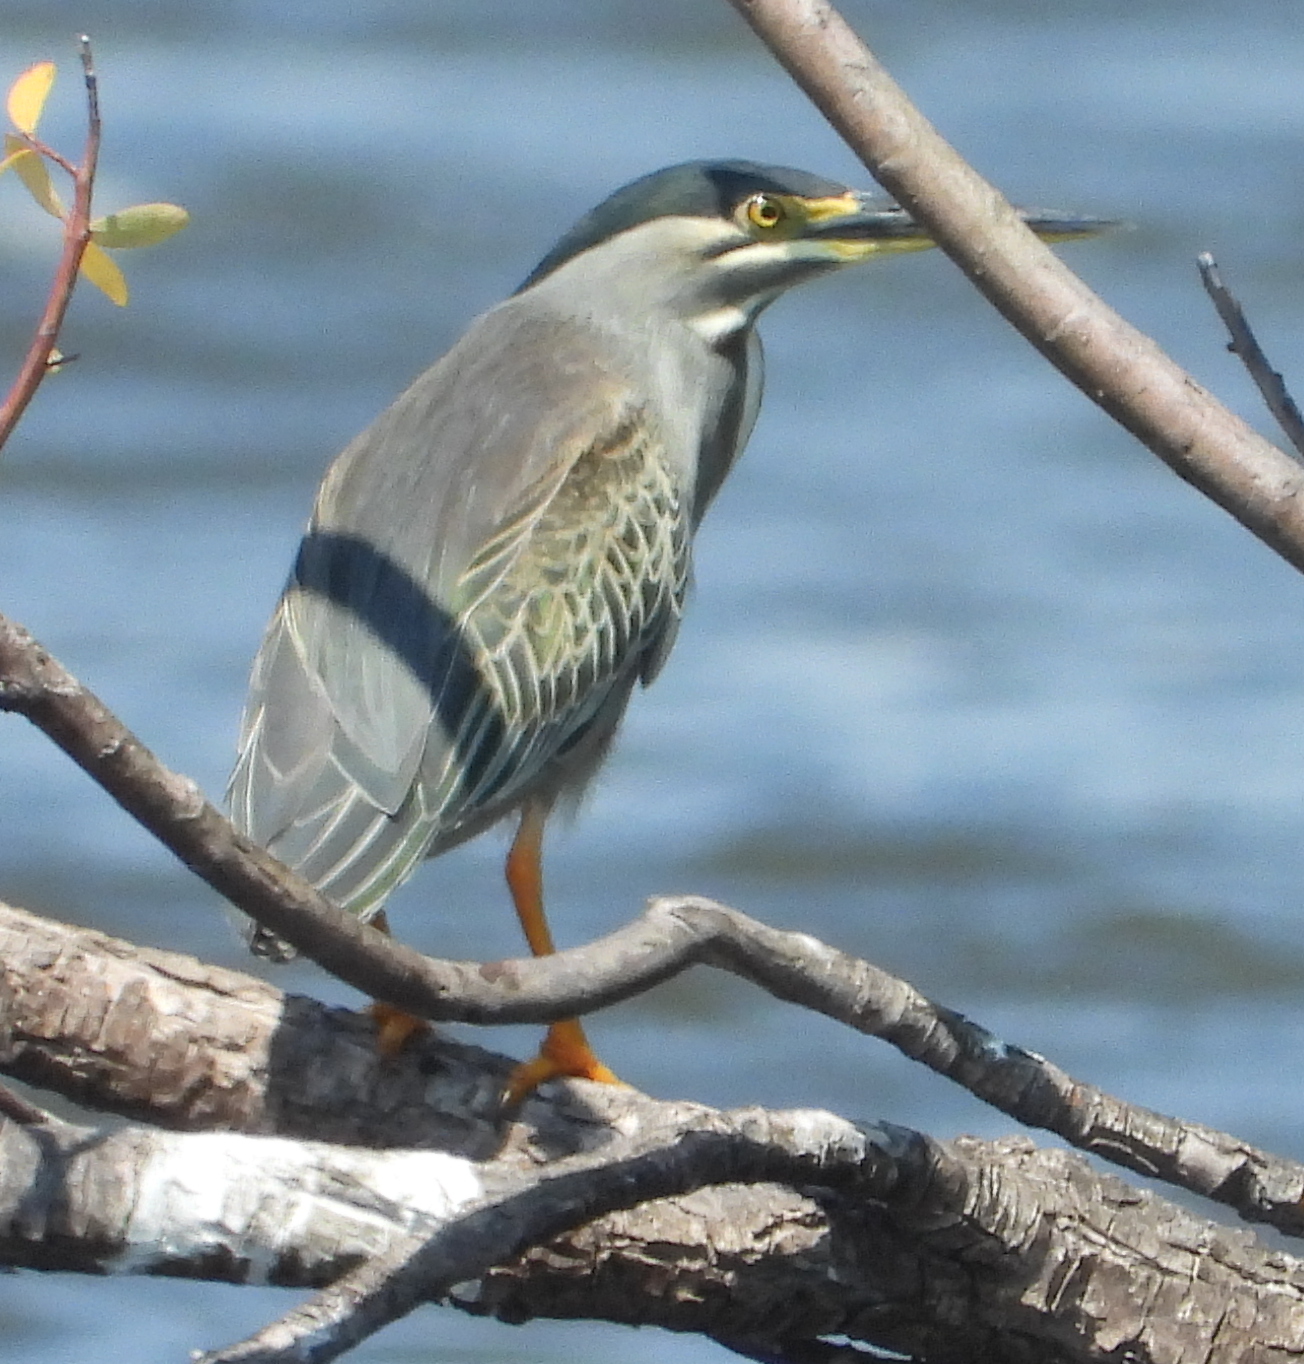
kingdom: Animalia
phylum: Chordata
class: Aves
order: Pelecaniformes
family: Ardeidae
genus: Butorides
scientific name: Butorides striata
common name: Striated heron
